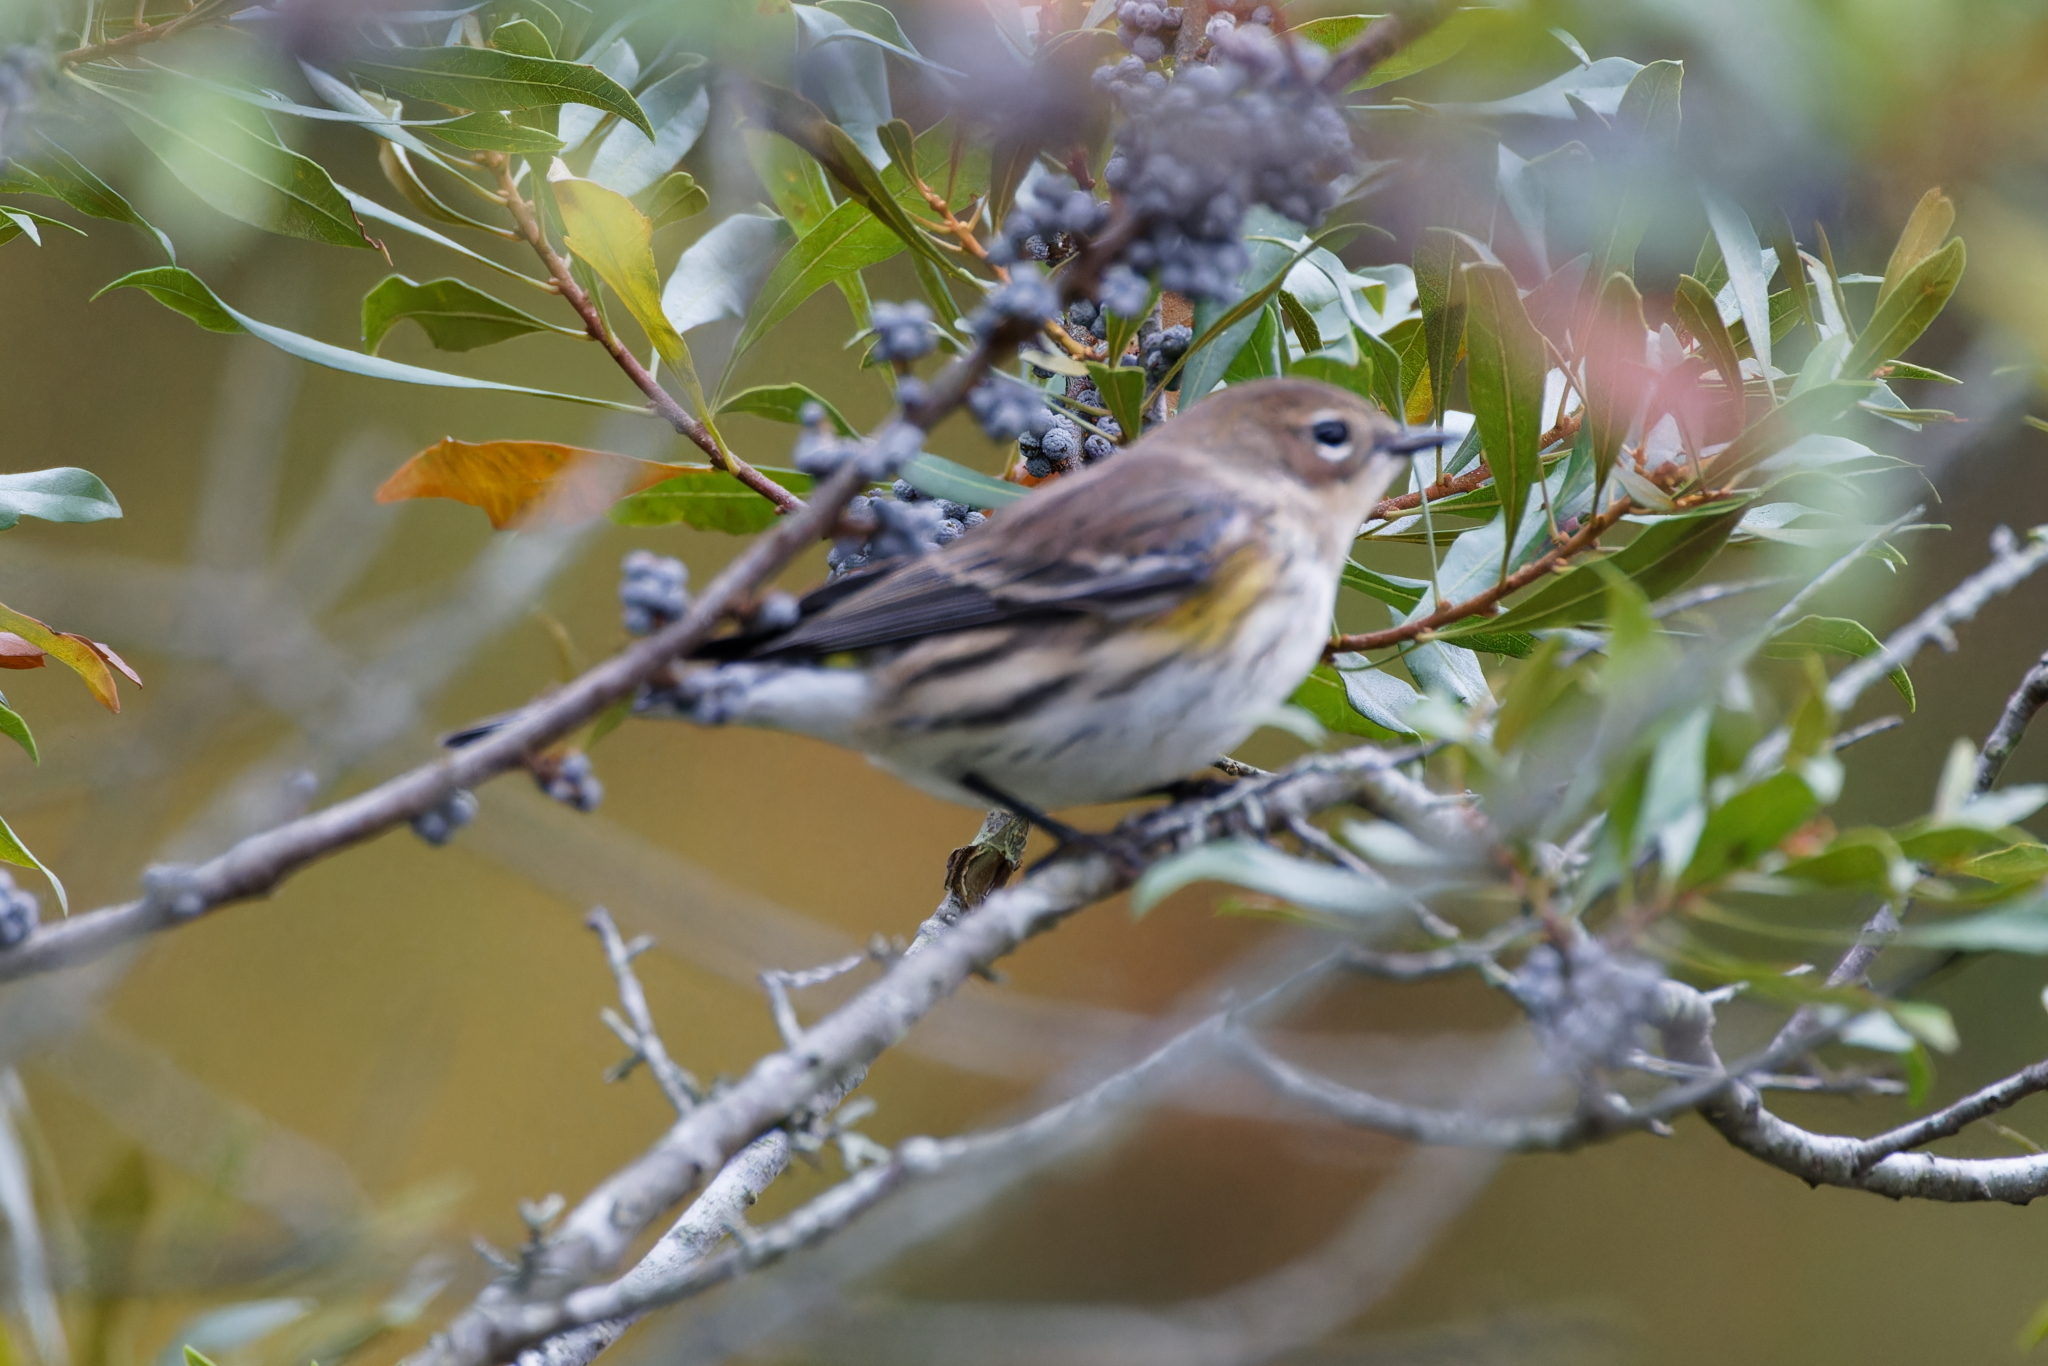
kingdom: Animalia
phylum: Chordata
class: Aves
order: Passeriformes
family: Parulidae
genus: Setophaga
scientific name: Setophaga coronata
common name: Myrtle warbler
